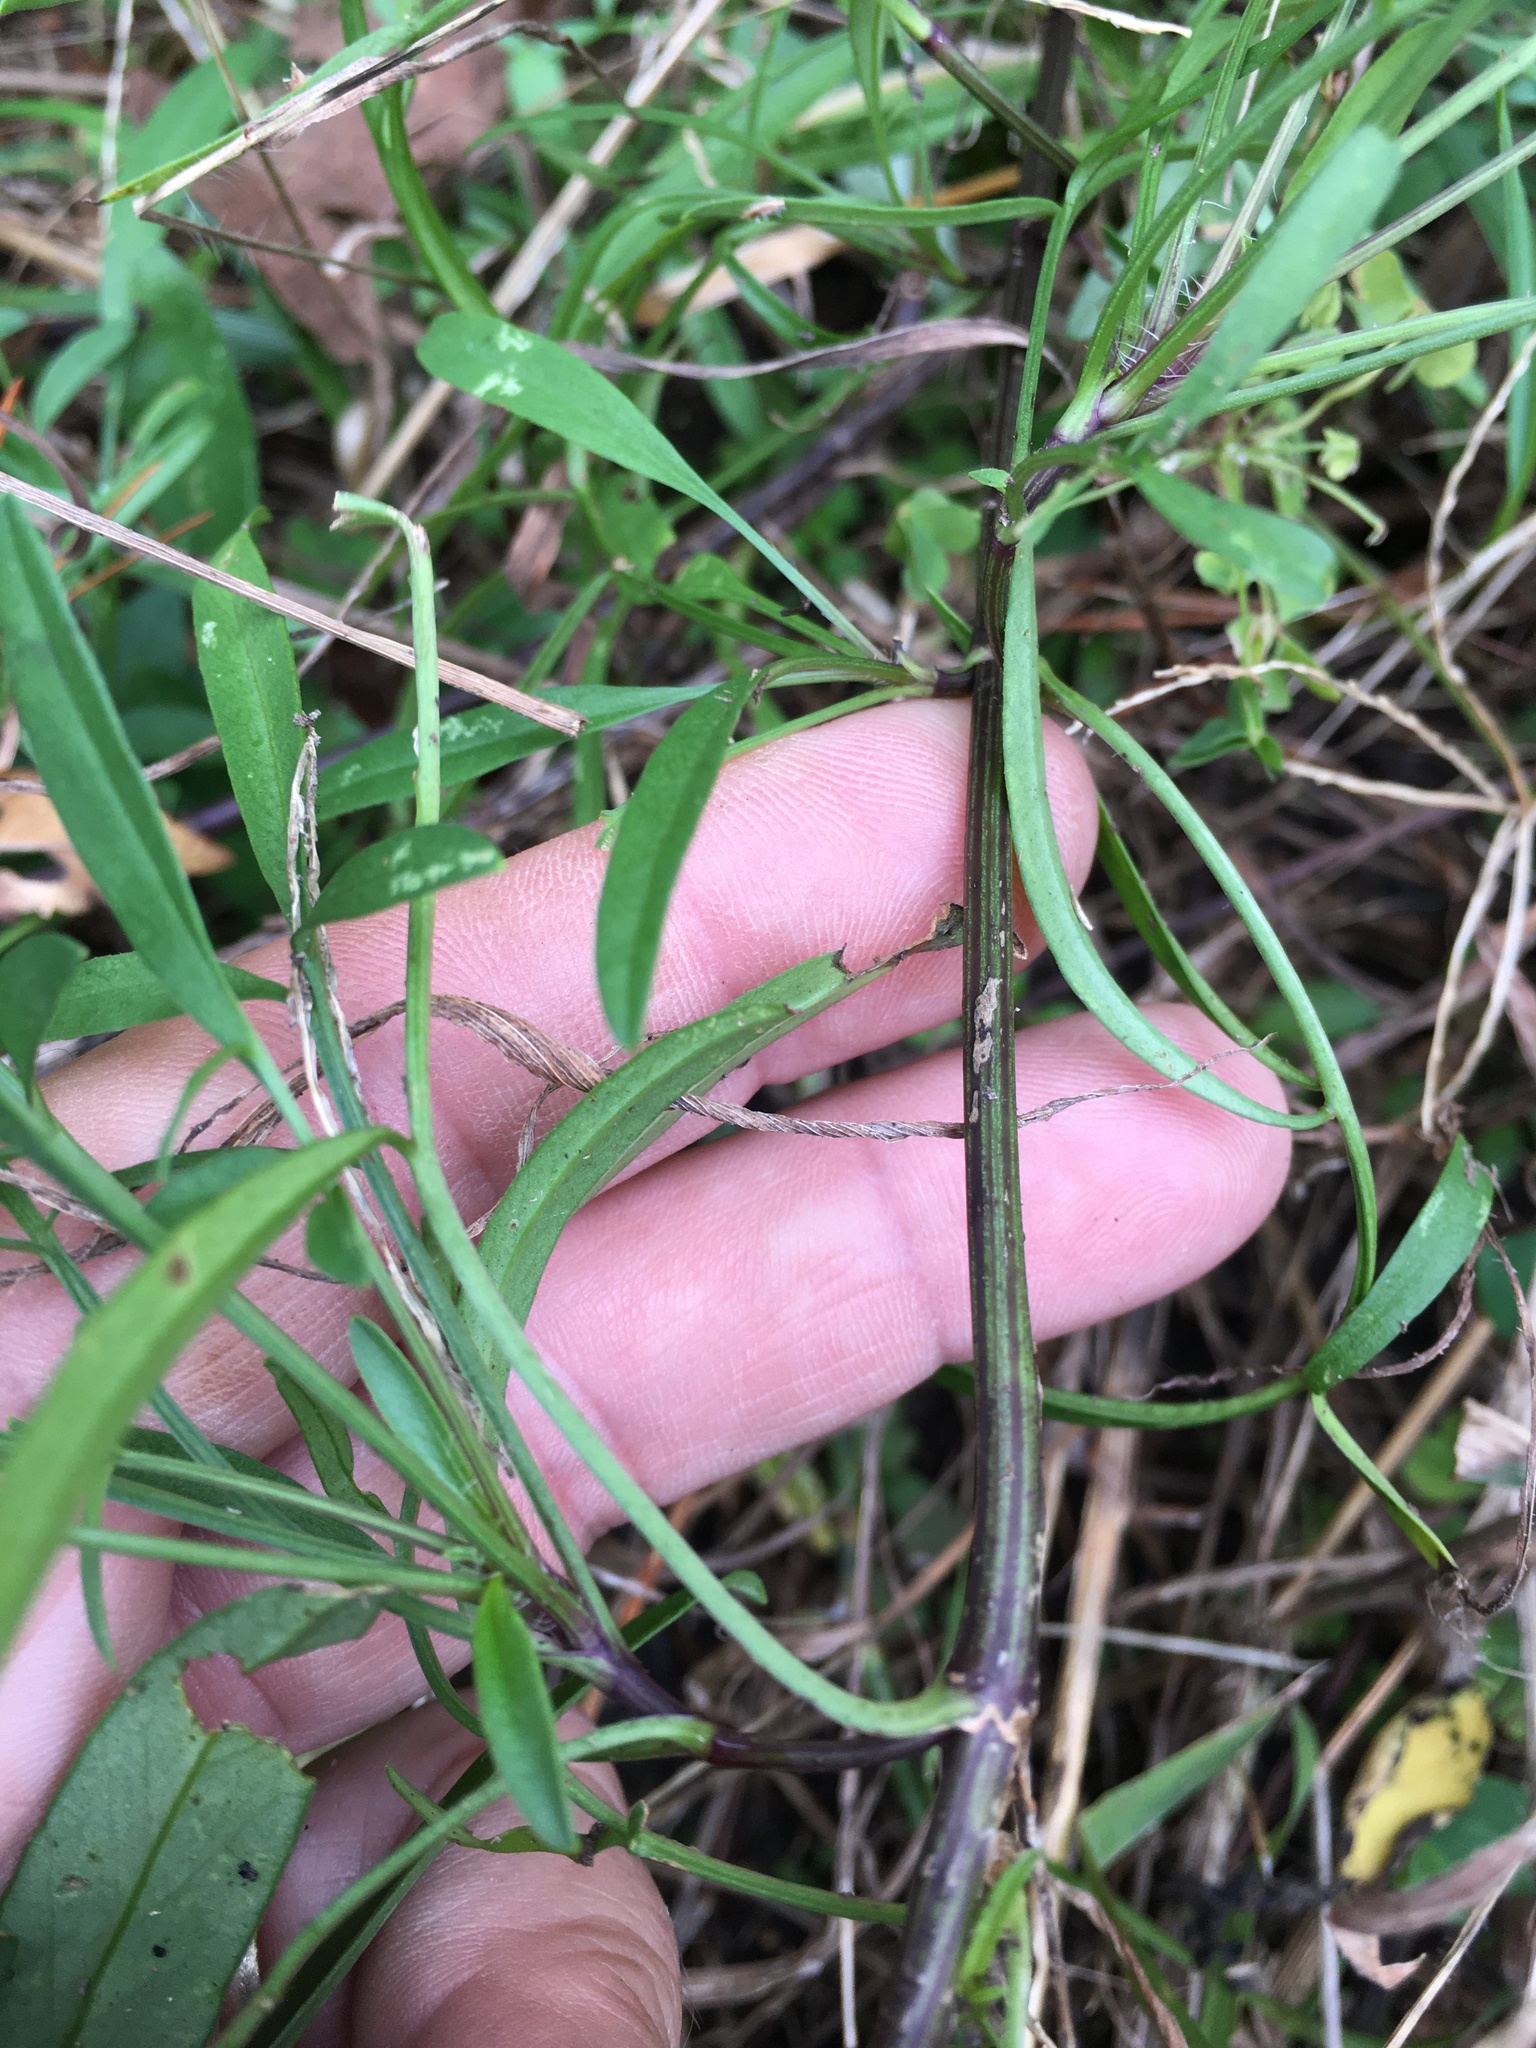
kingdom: Plantae
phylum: Tracheophyta
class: Magnoliopsida
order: Asterales
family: Asteraceae
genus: Coreopsis
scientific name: Coreopsis lanceolata
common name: Garden coreopsis
